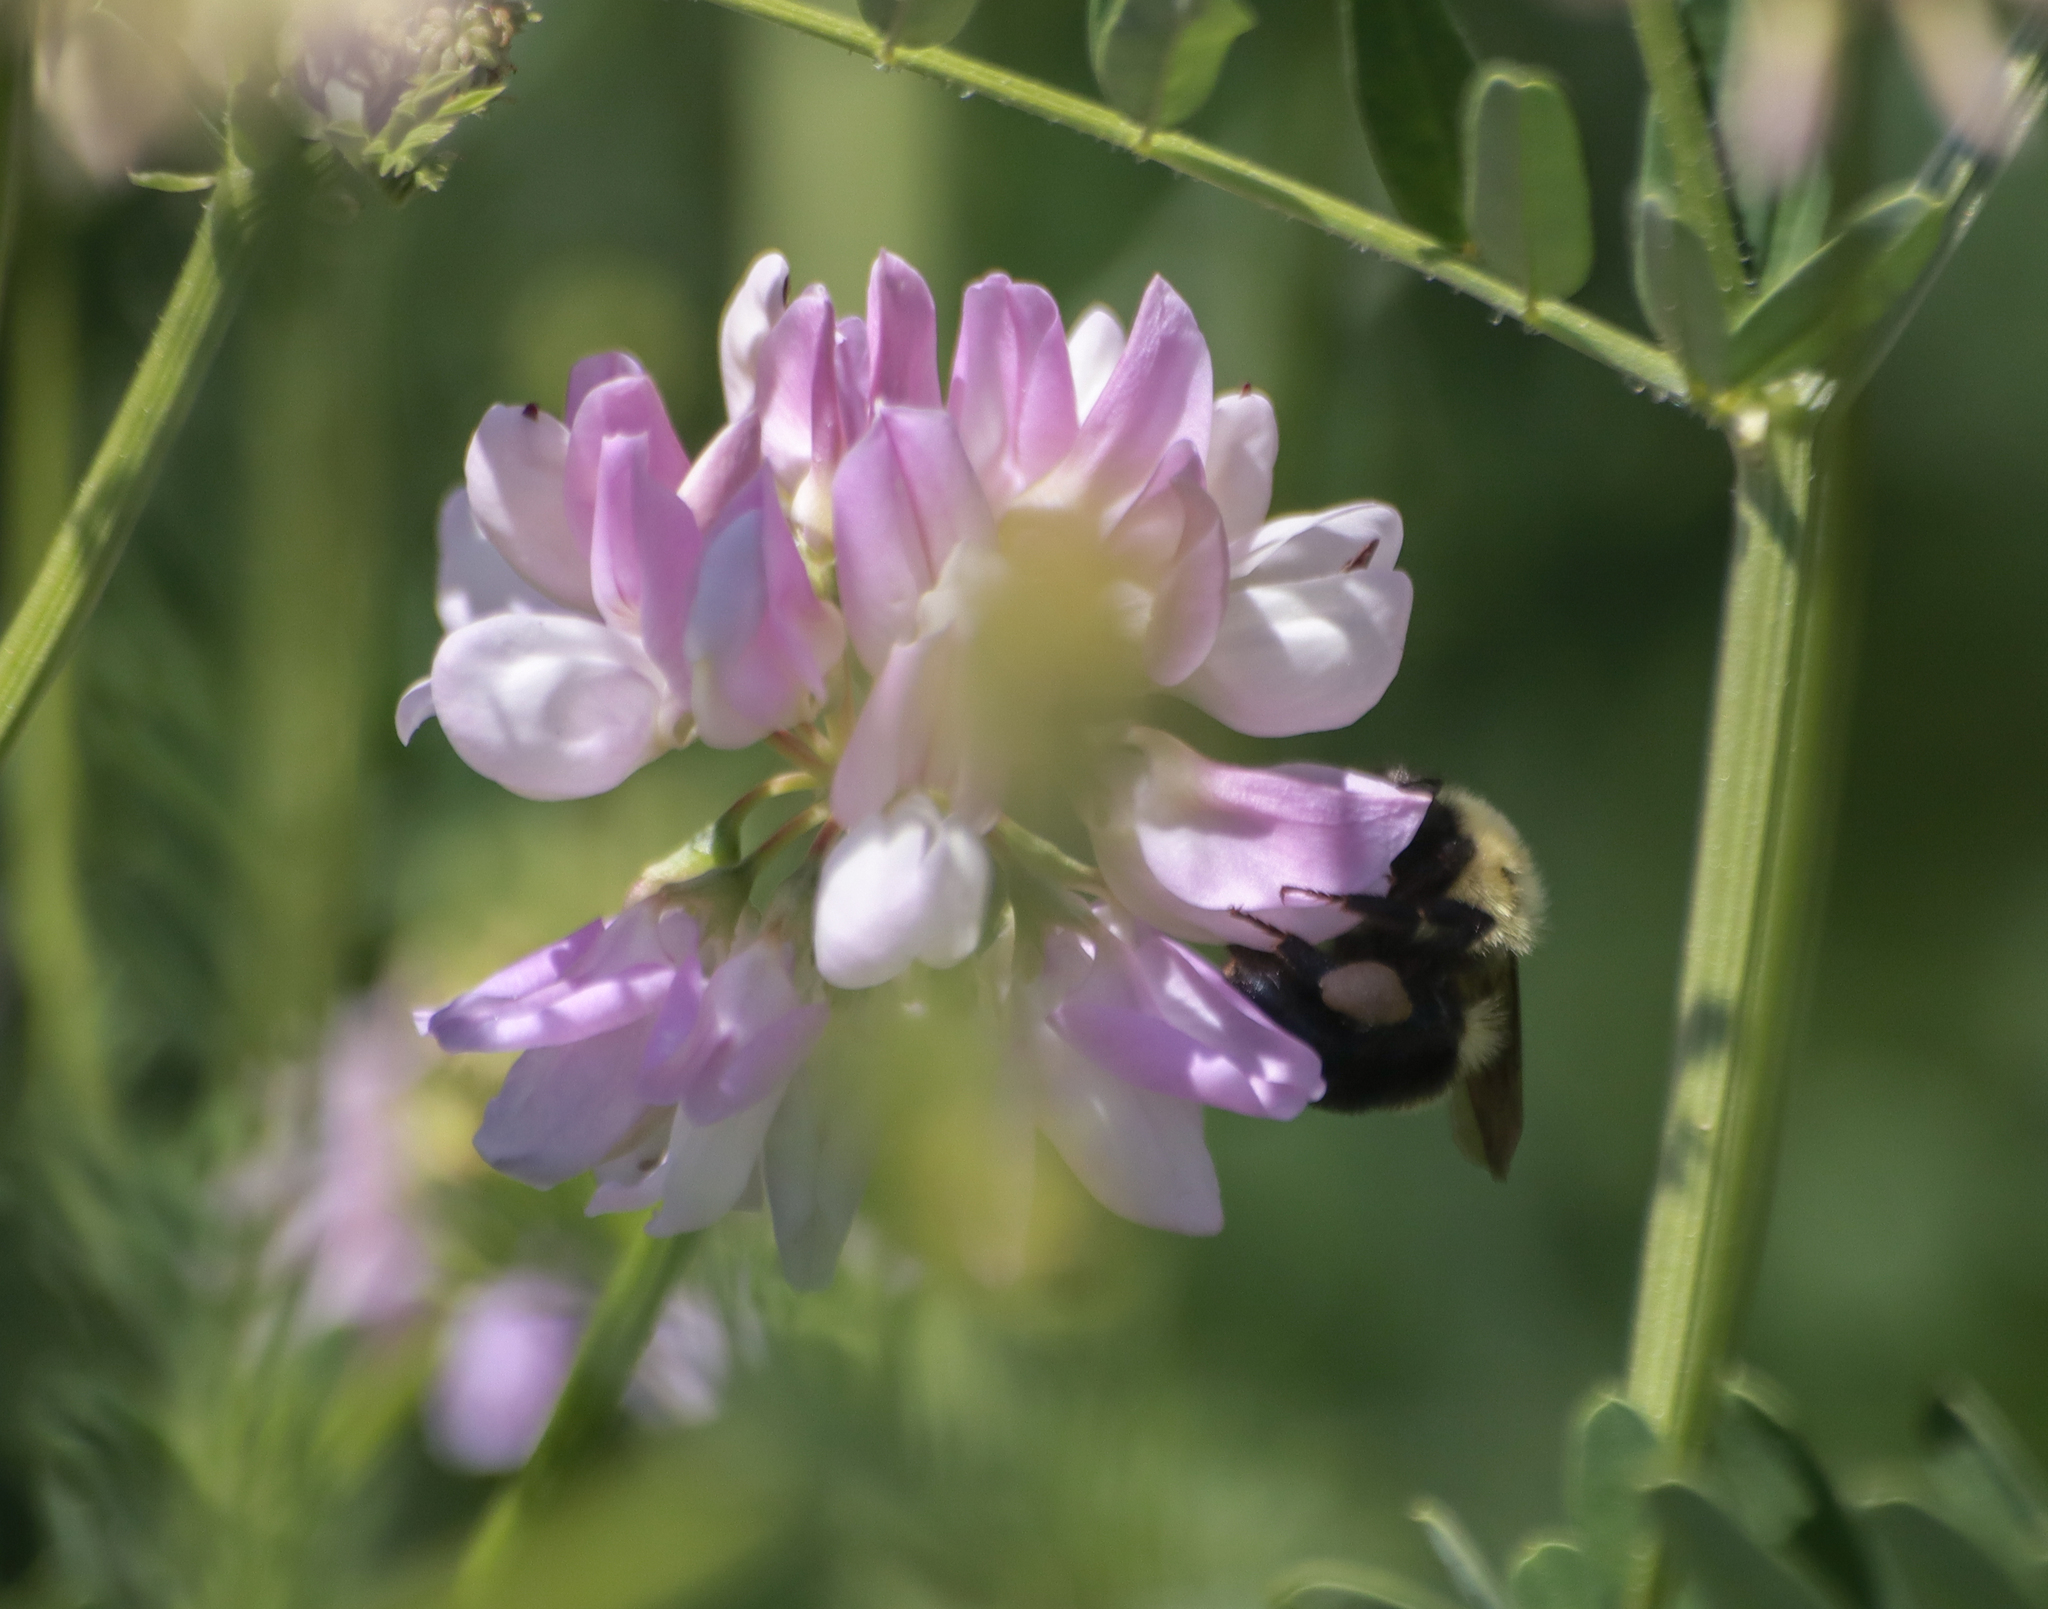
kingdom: Animalia
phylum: Arthropoda
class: Insecta
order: Hymenoptera
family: Apidae
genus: Pyrobombus
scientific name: Pyrobombus
